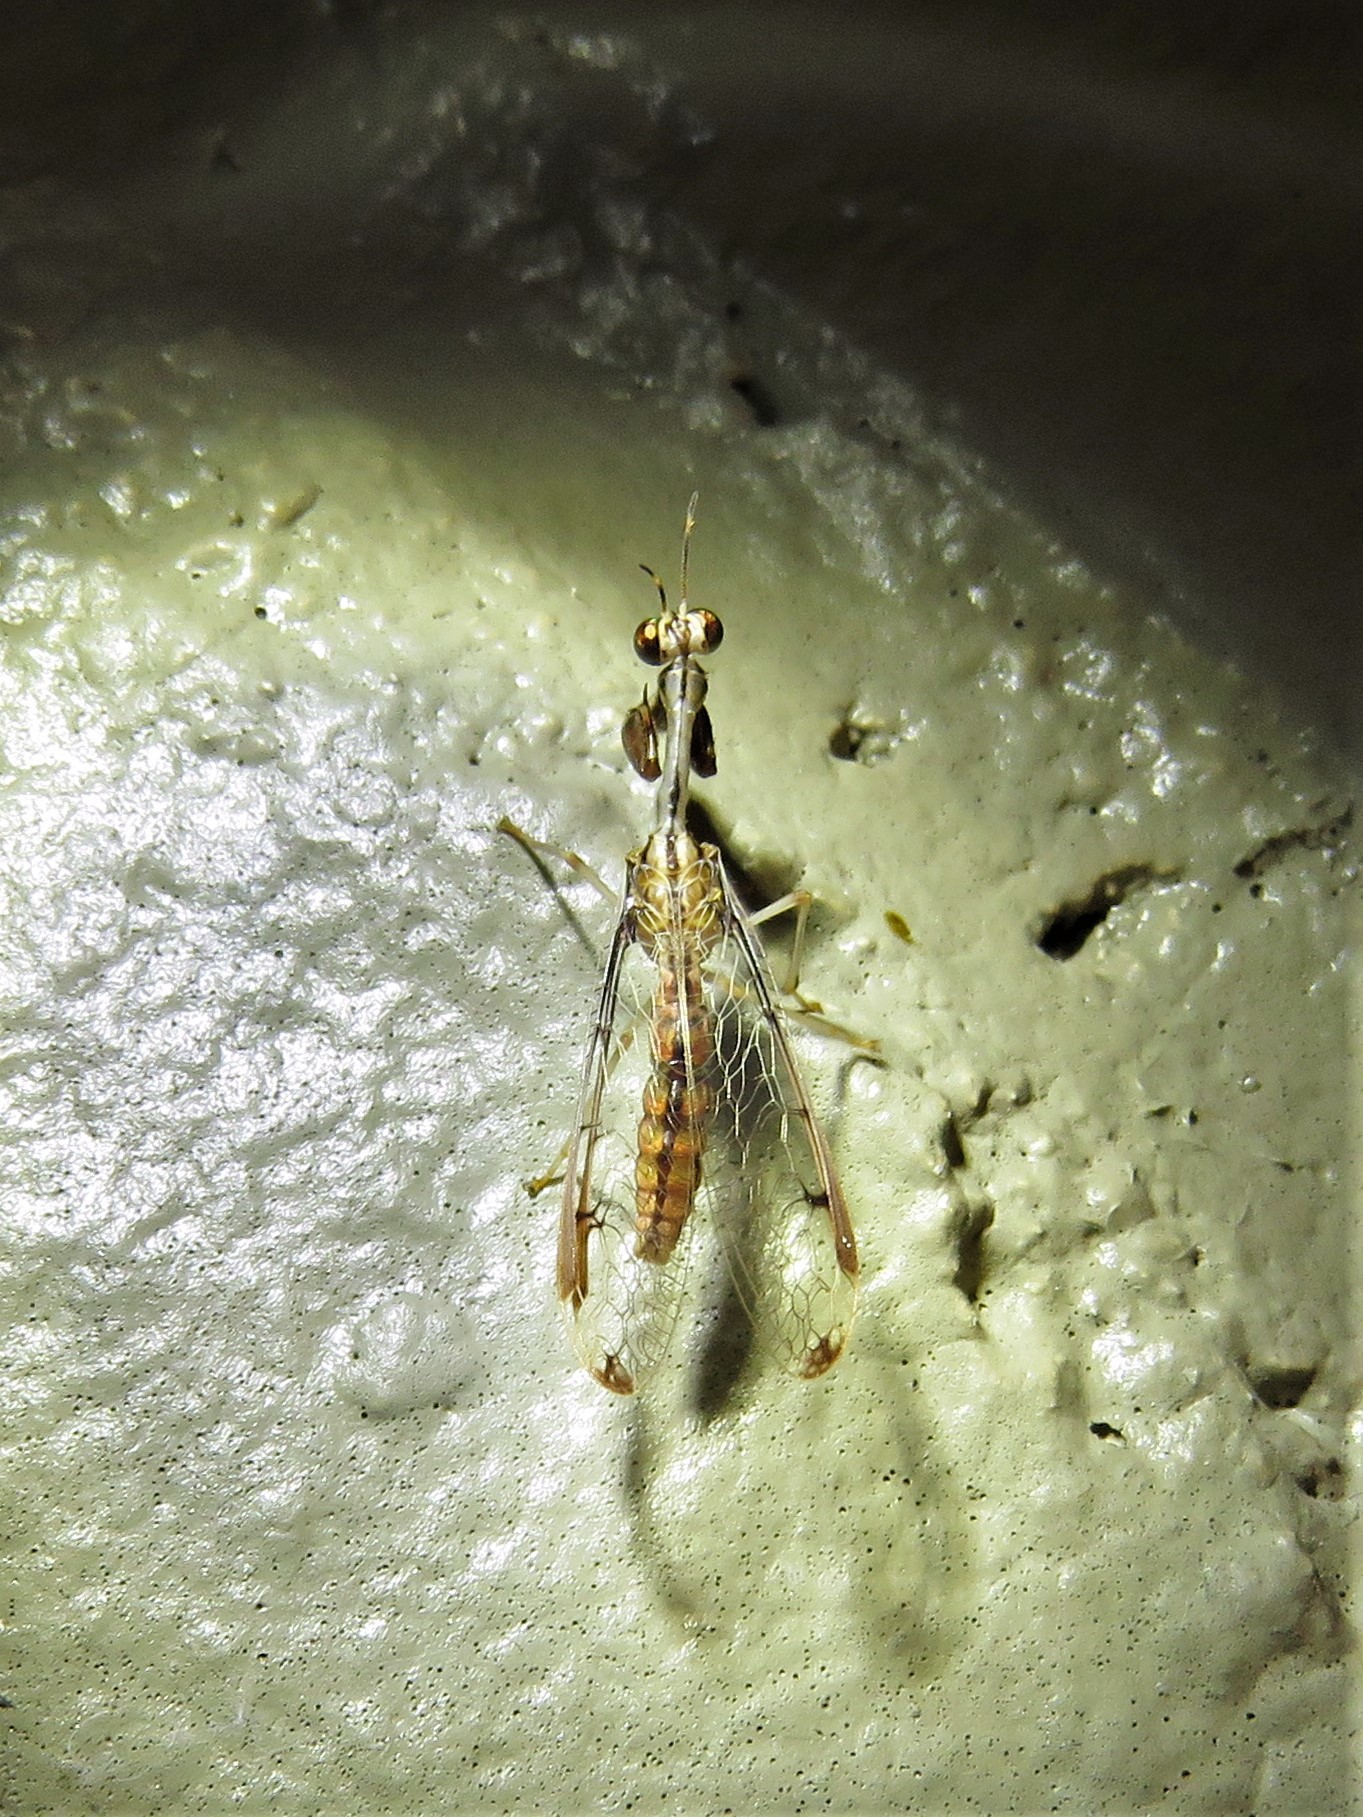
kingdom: Animalia
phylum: Arthropoda
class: Insecta
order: Neuroptera
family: Mantispidae
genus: Dicromantispa
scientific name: Dicromantispa interrupta
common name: Four-spotted mantidfly
